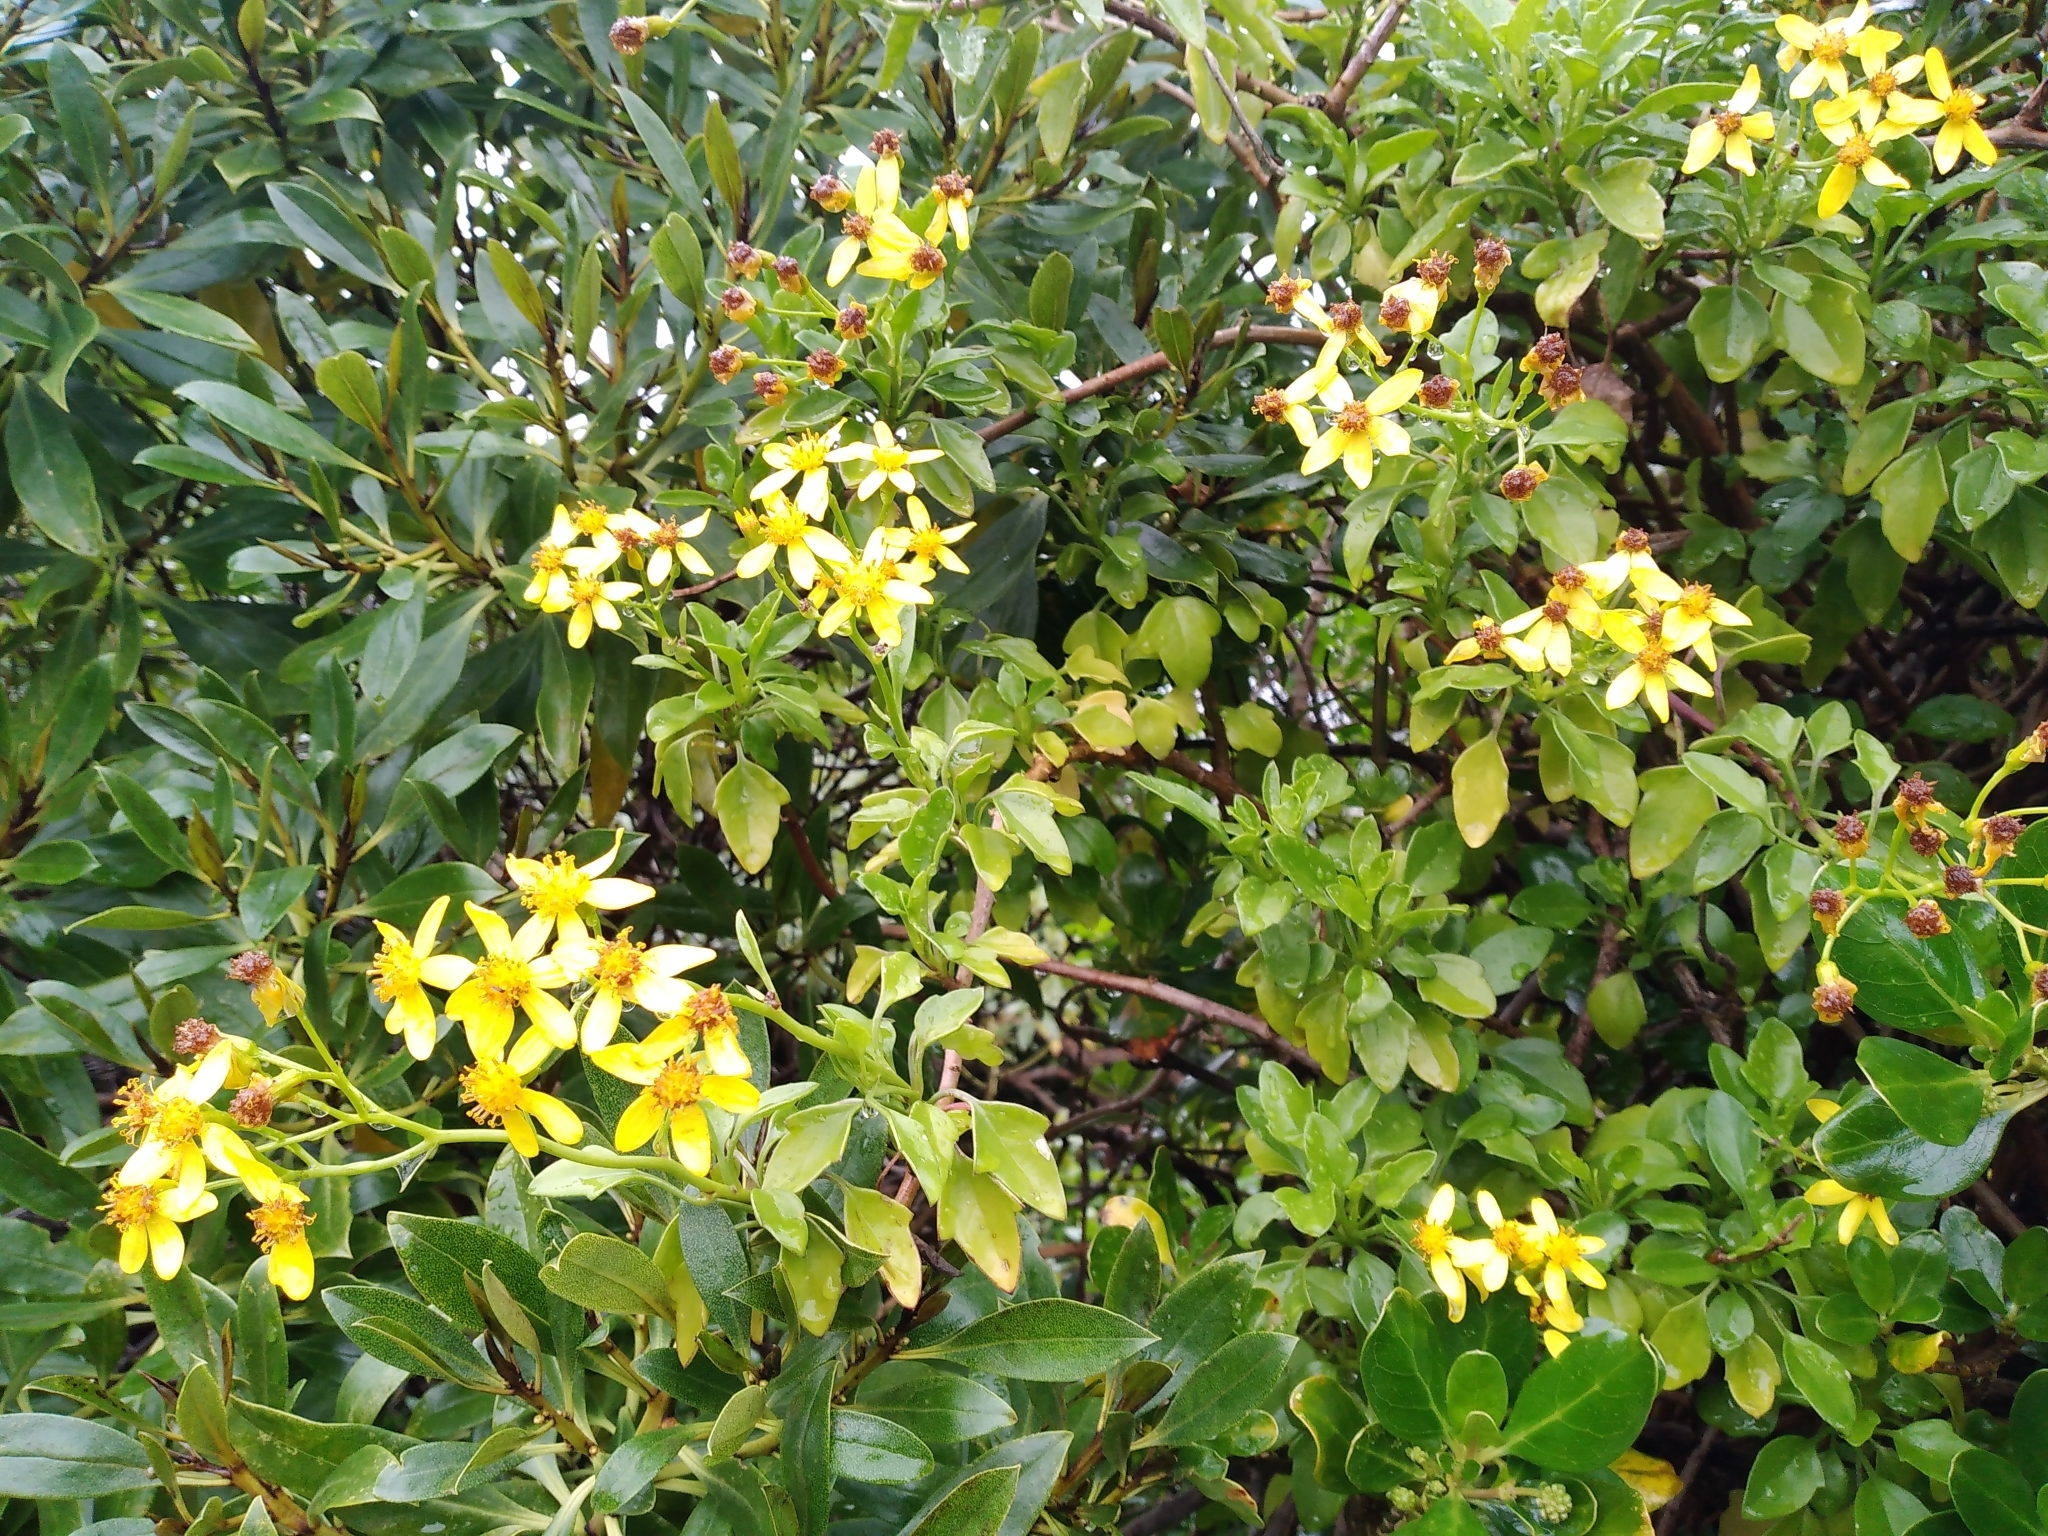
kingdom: Plantae
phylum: Tracheophyta
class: Magnoliopsida
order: Asterales
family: Asteraceae
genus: Senecio
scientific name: Senecio angulatus
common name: Climbing groundsel
